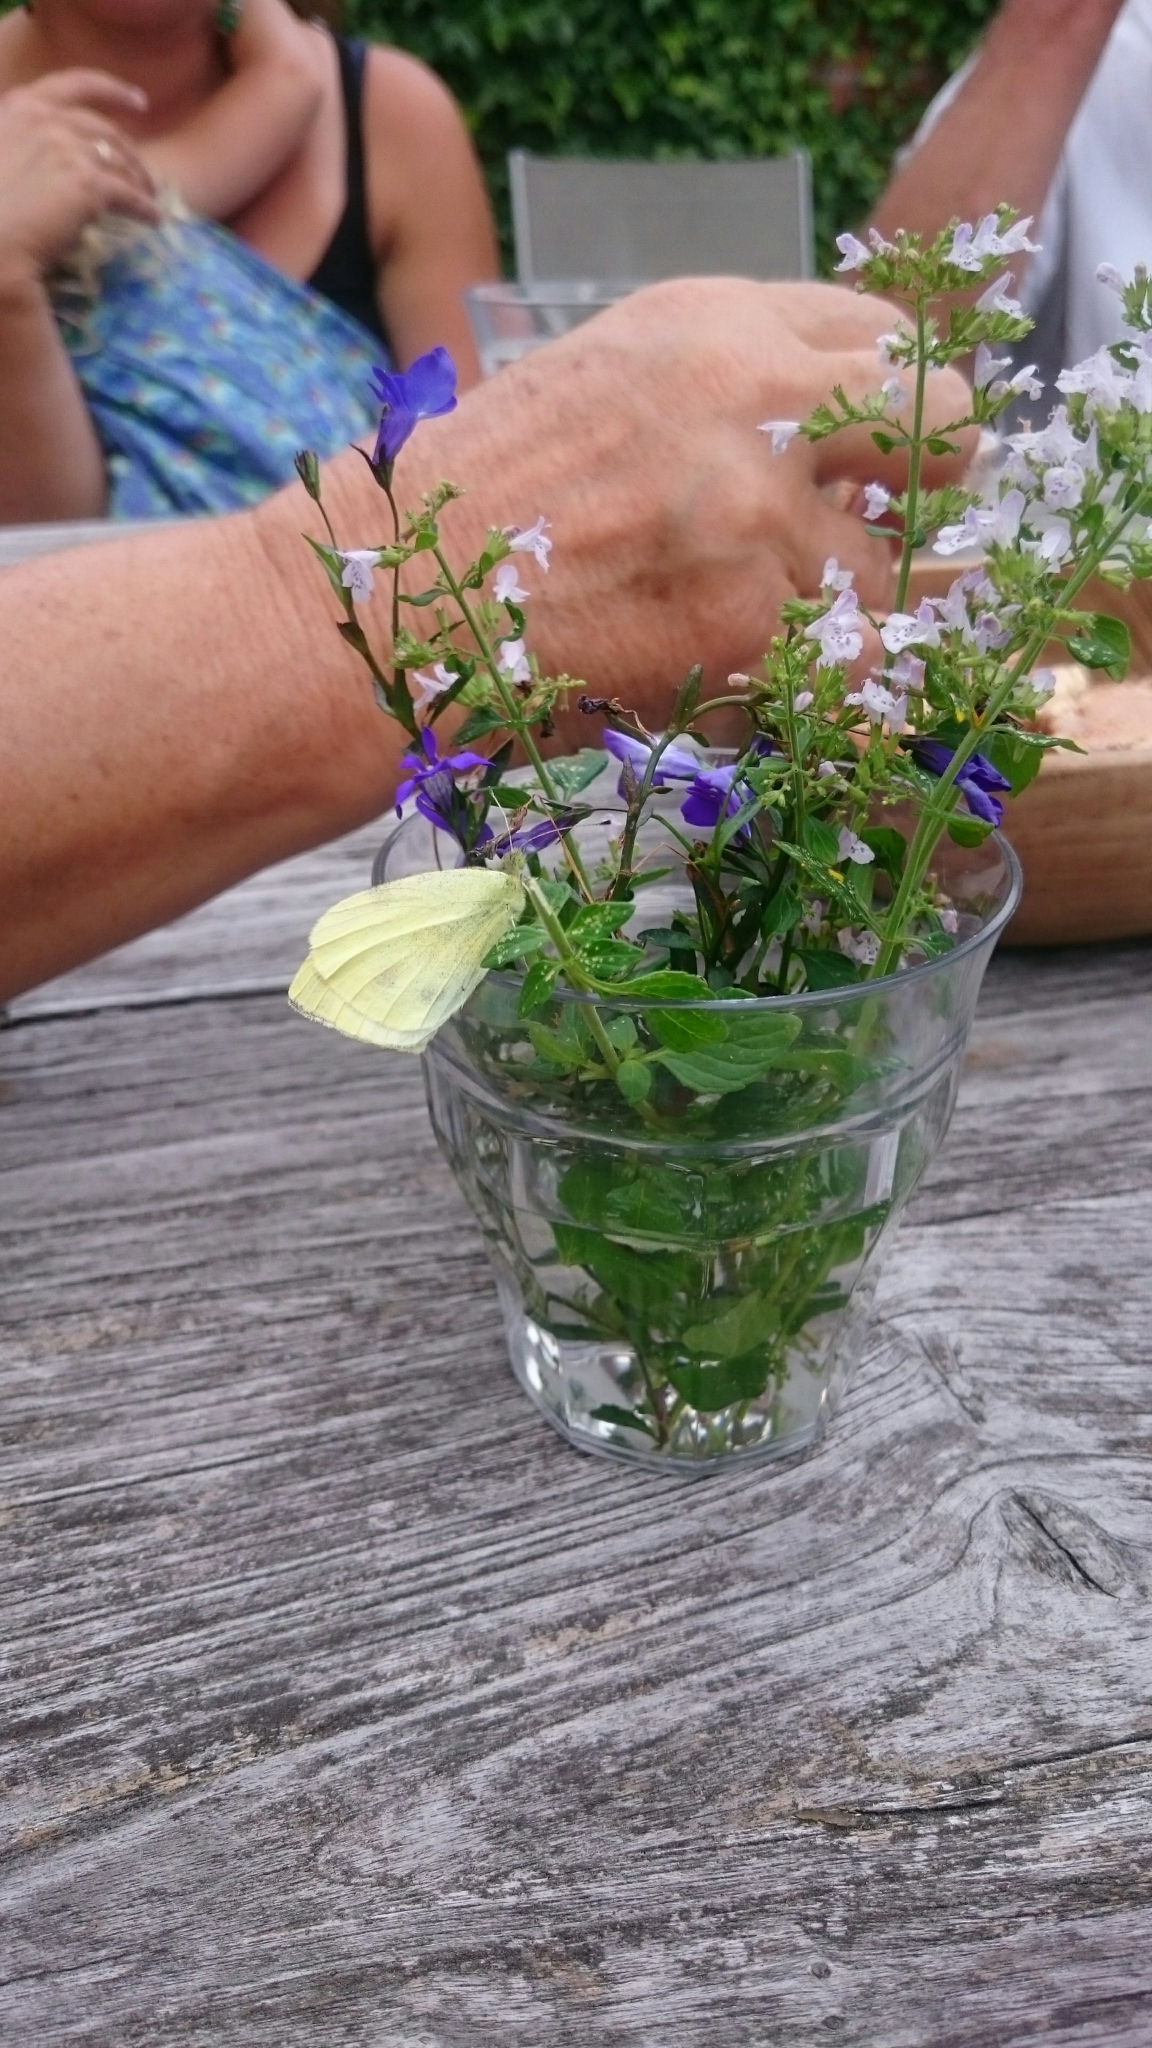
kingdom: Animalia
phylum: Arthropoda
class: Insecta
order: Lepidoptera
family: Pieridae
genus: Pieris
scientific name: Pieris rapae
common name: Small white
